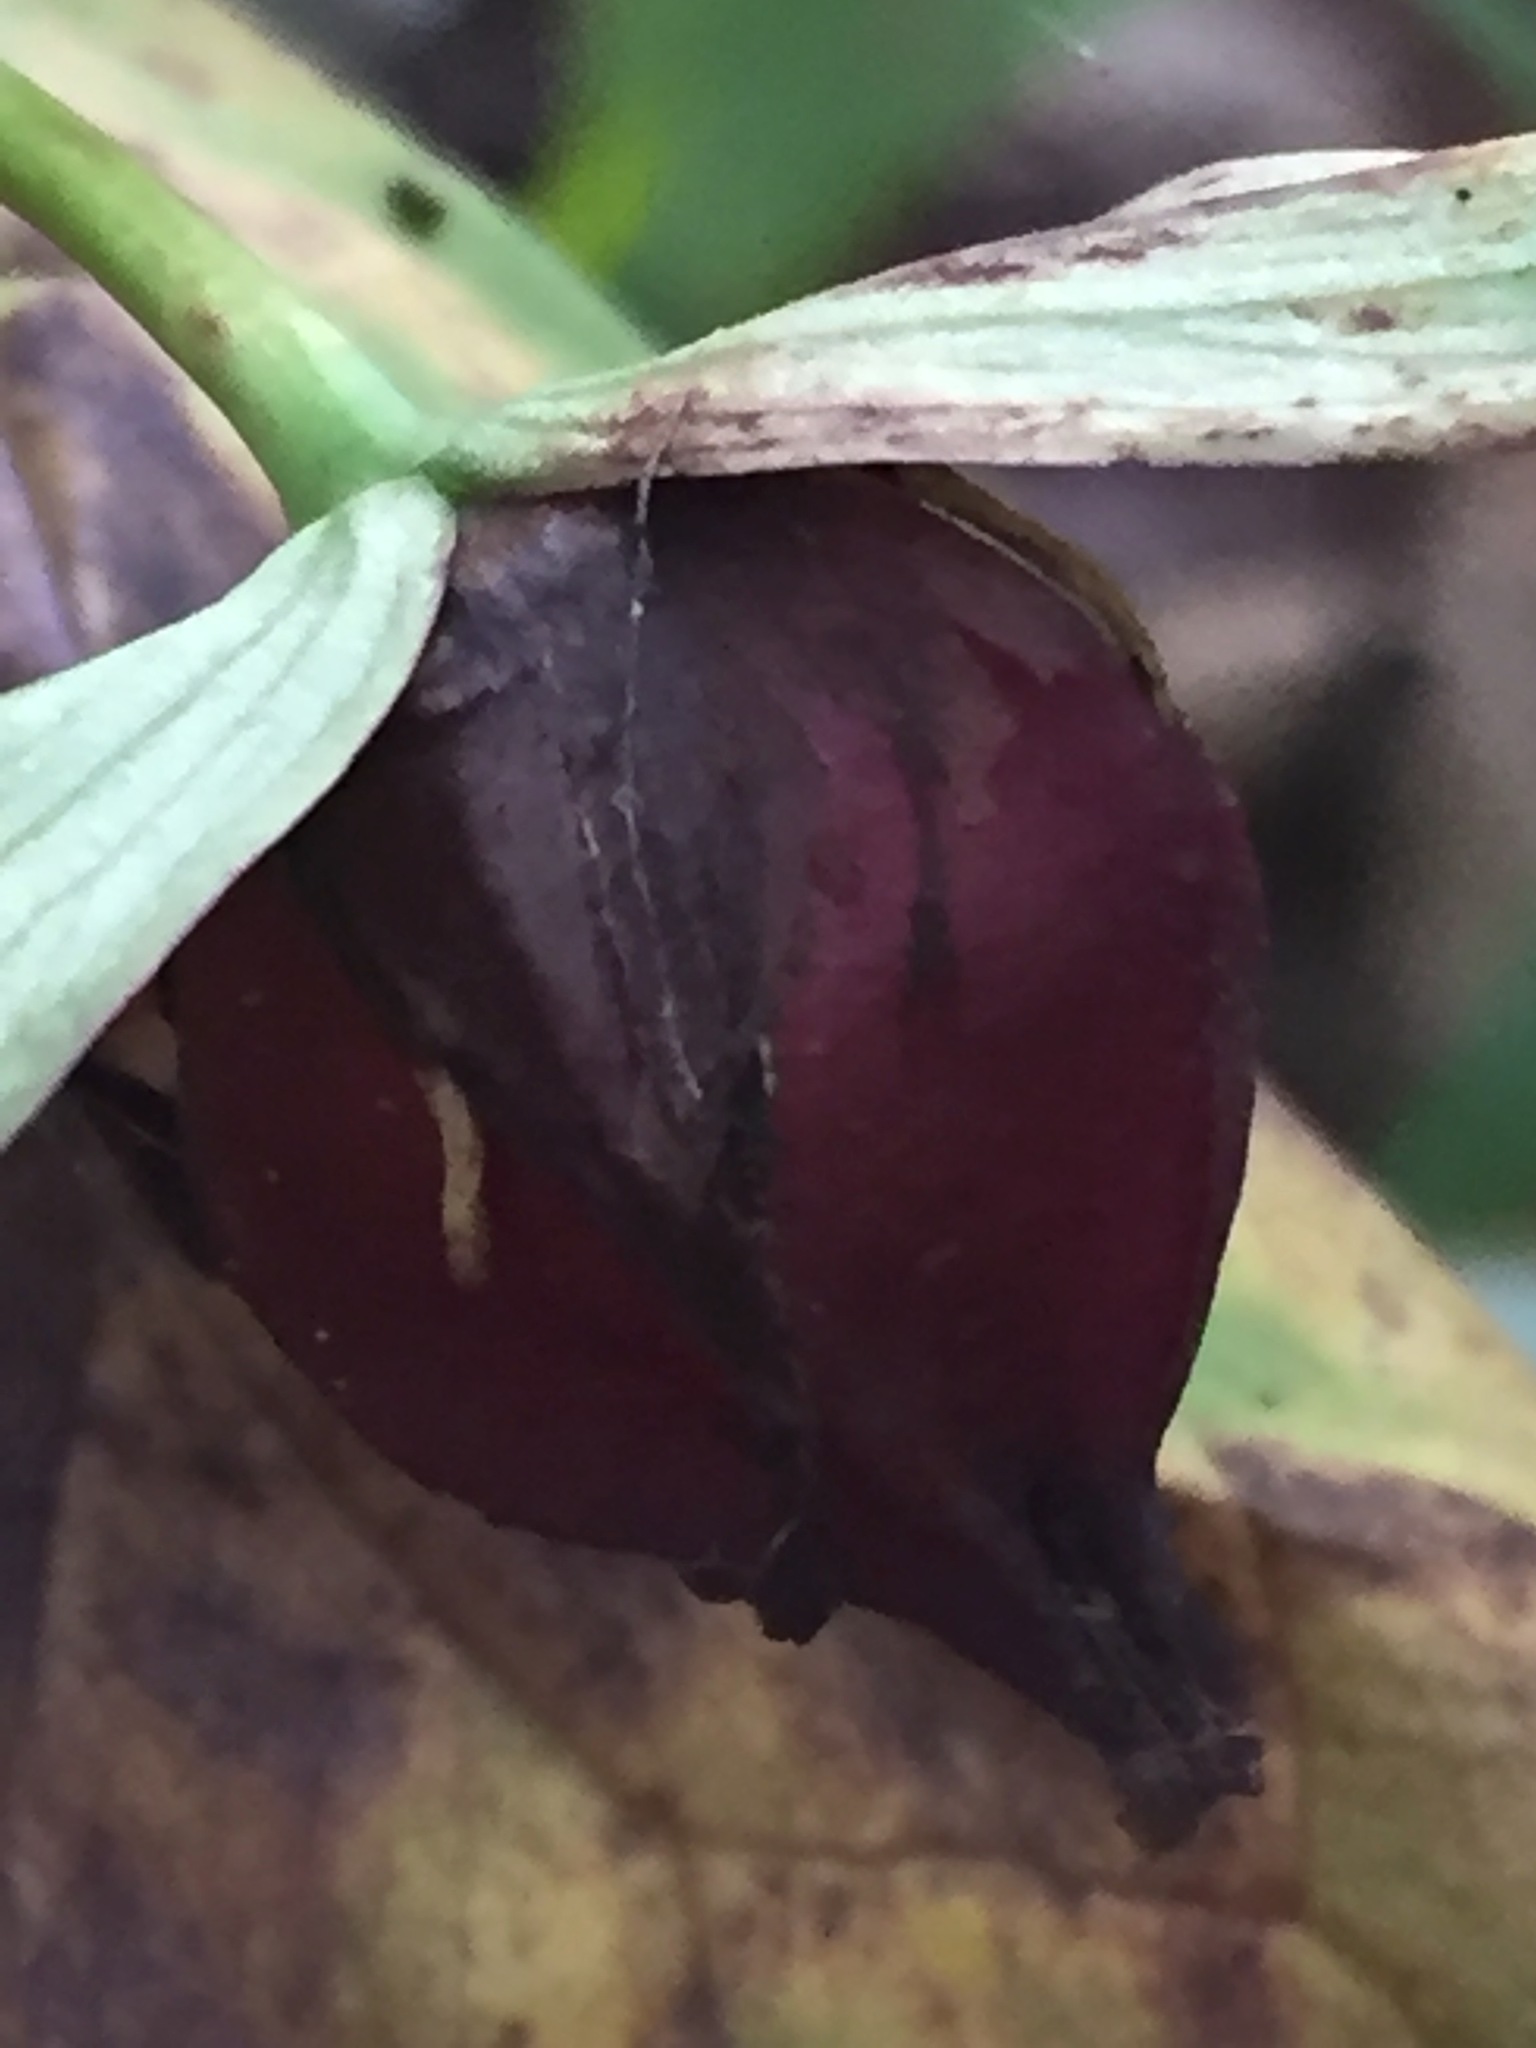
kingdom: Plantae
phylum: Tracheophyta
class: Liliopsida
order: Liliales
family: Melanthiaceae
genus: Trillium
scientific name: Trillium erectum
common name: Purple trillium
